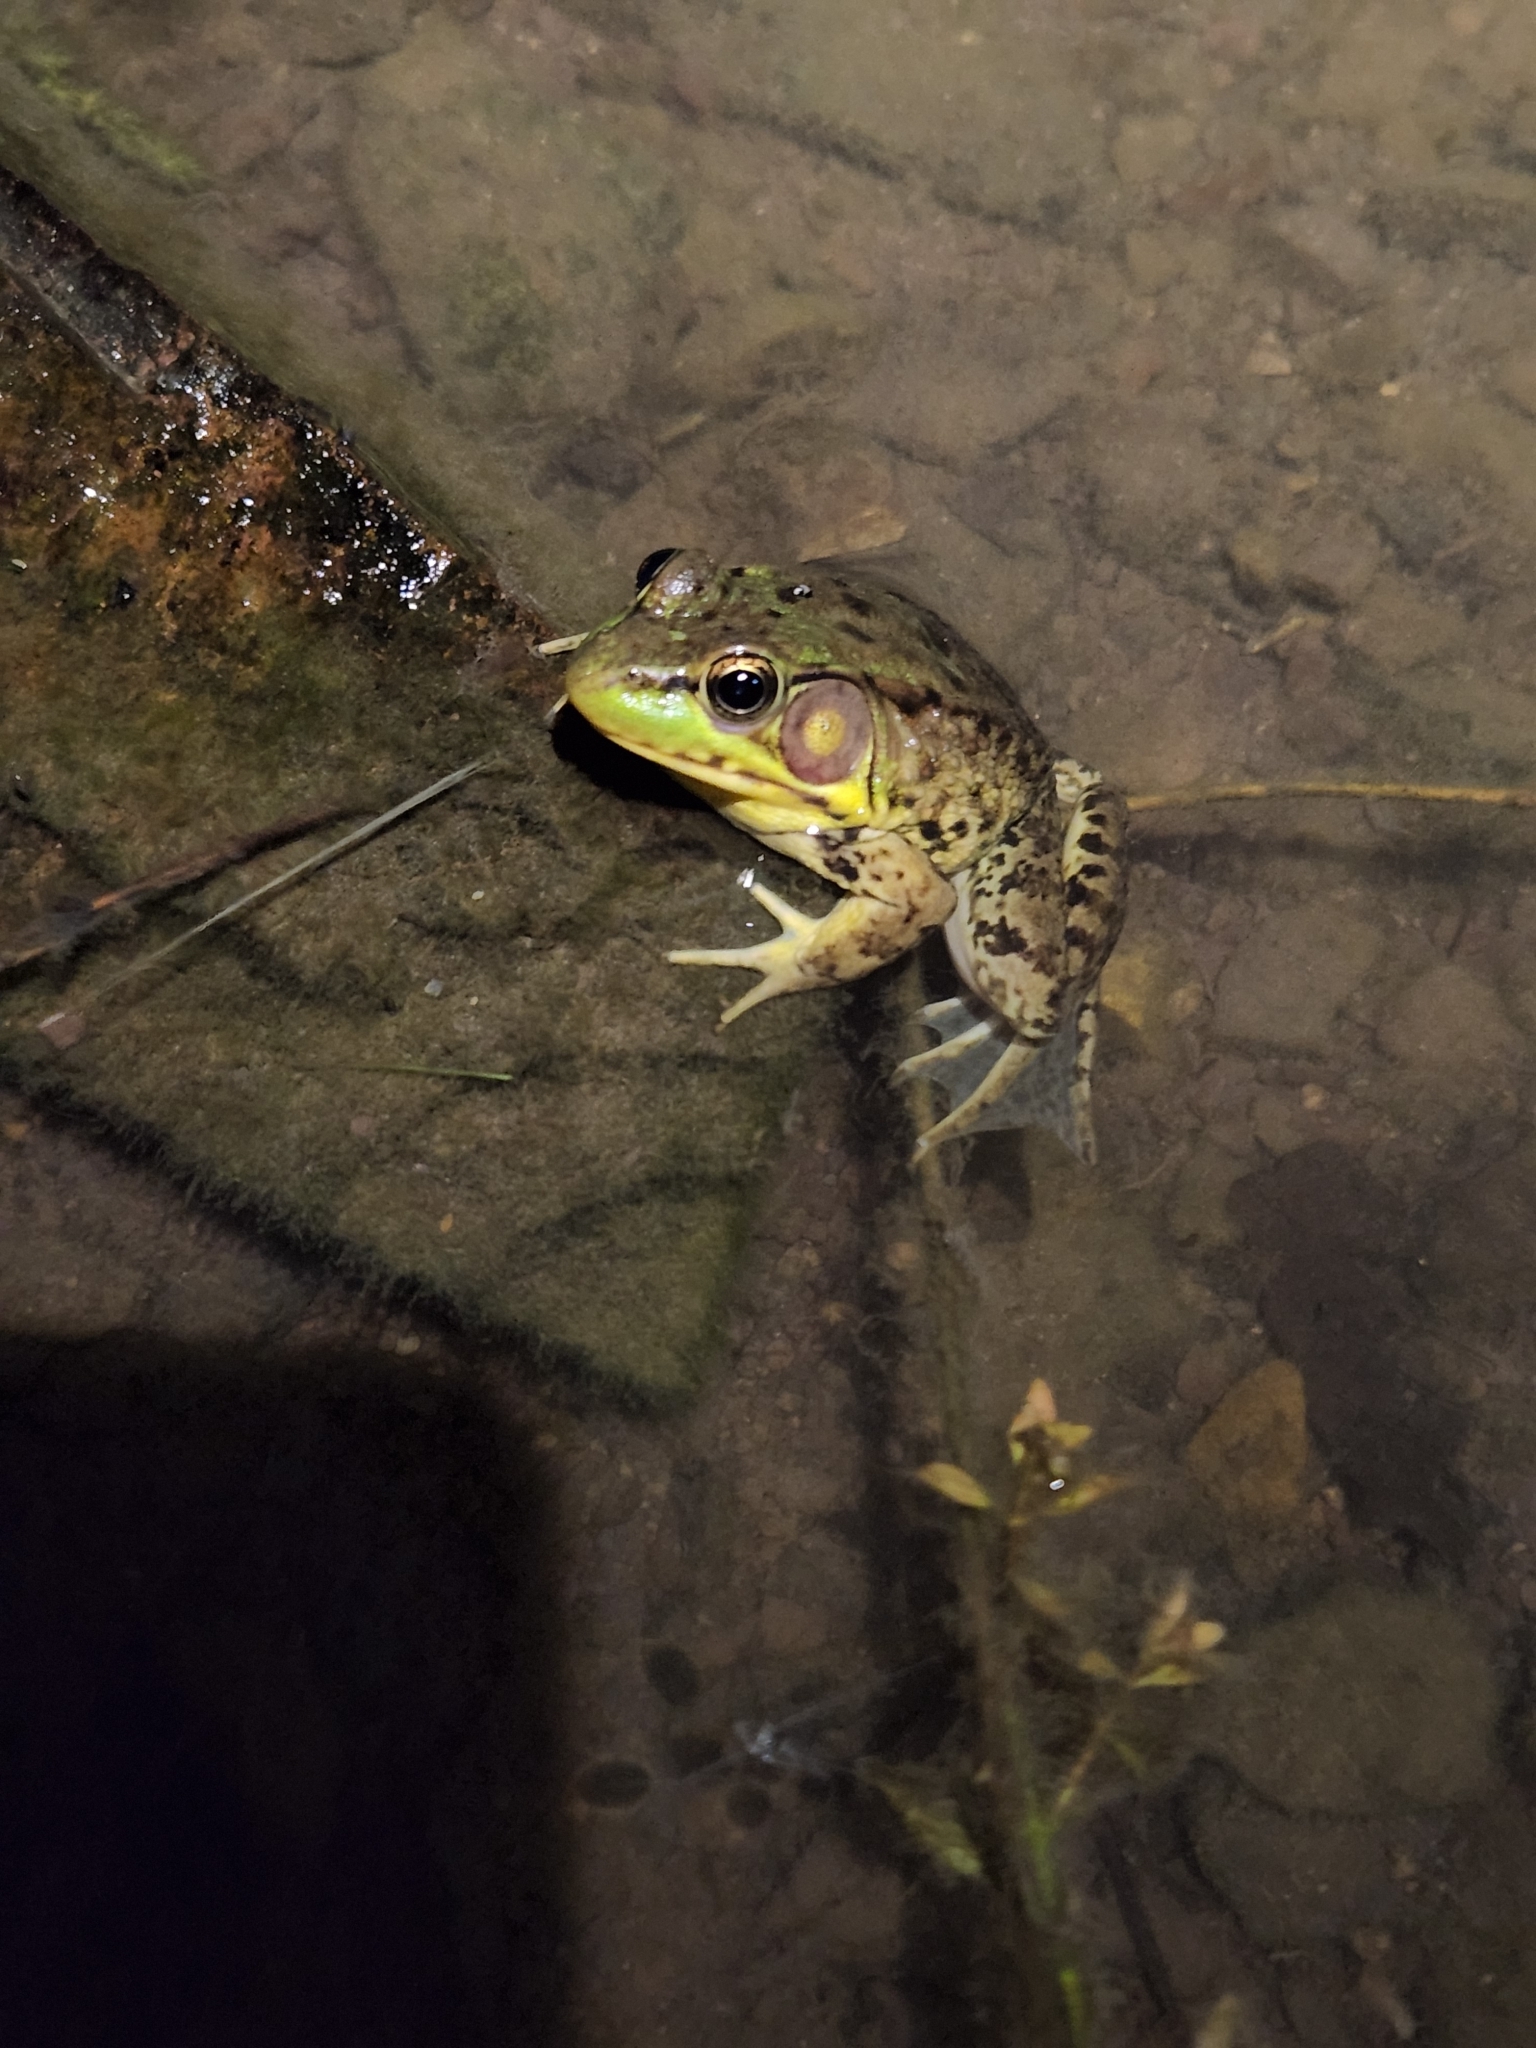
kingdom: Animalia
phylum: Chordata
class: Amphibia
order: Anura
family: Ranidae
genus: Lithobates
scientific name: Lithobates clamitans
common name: Green frog
